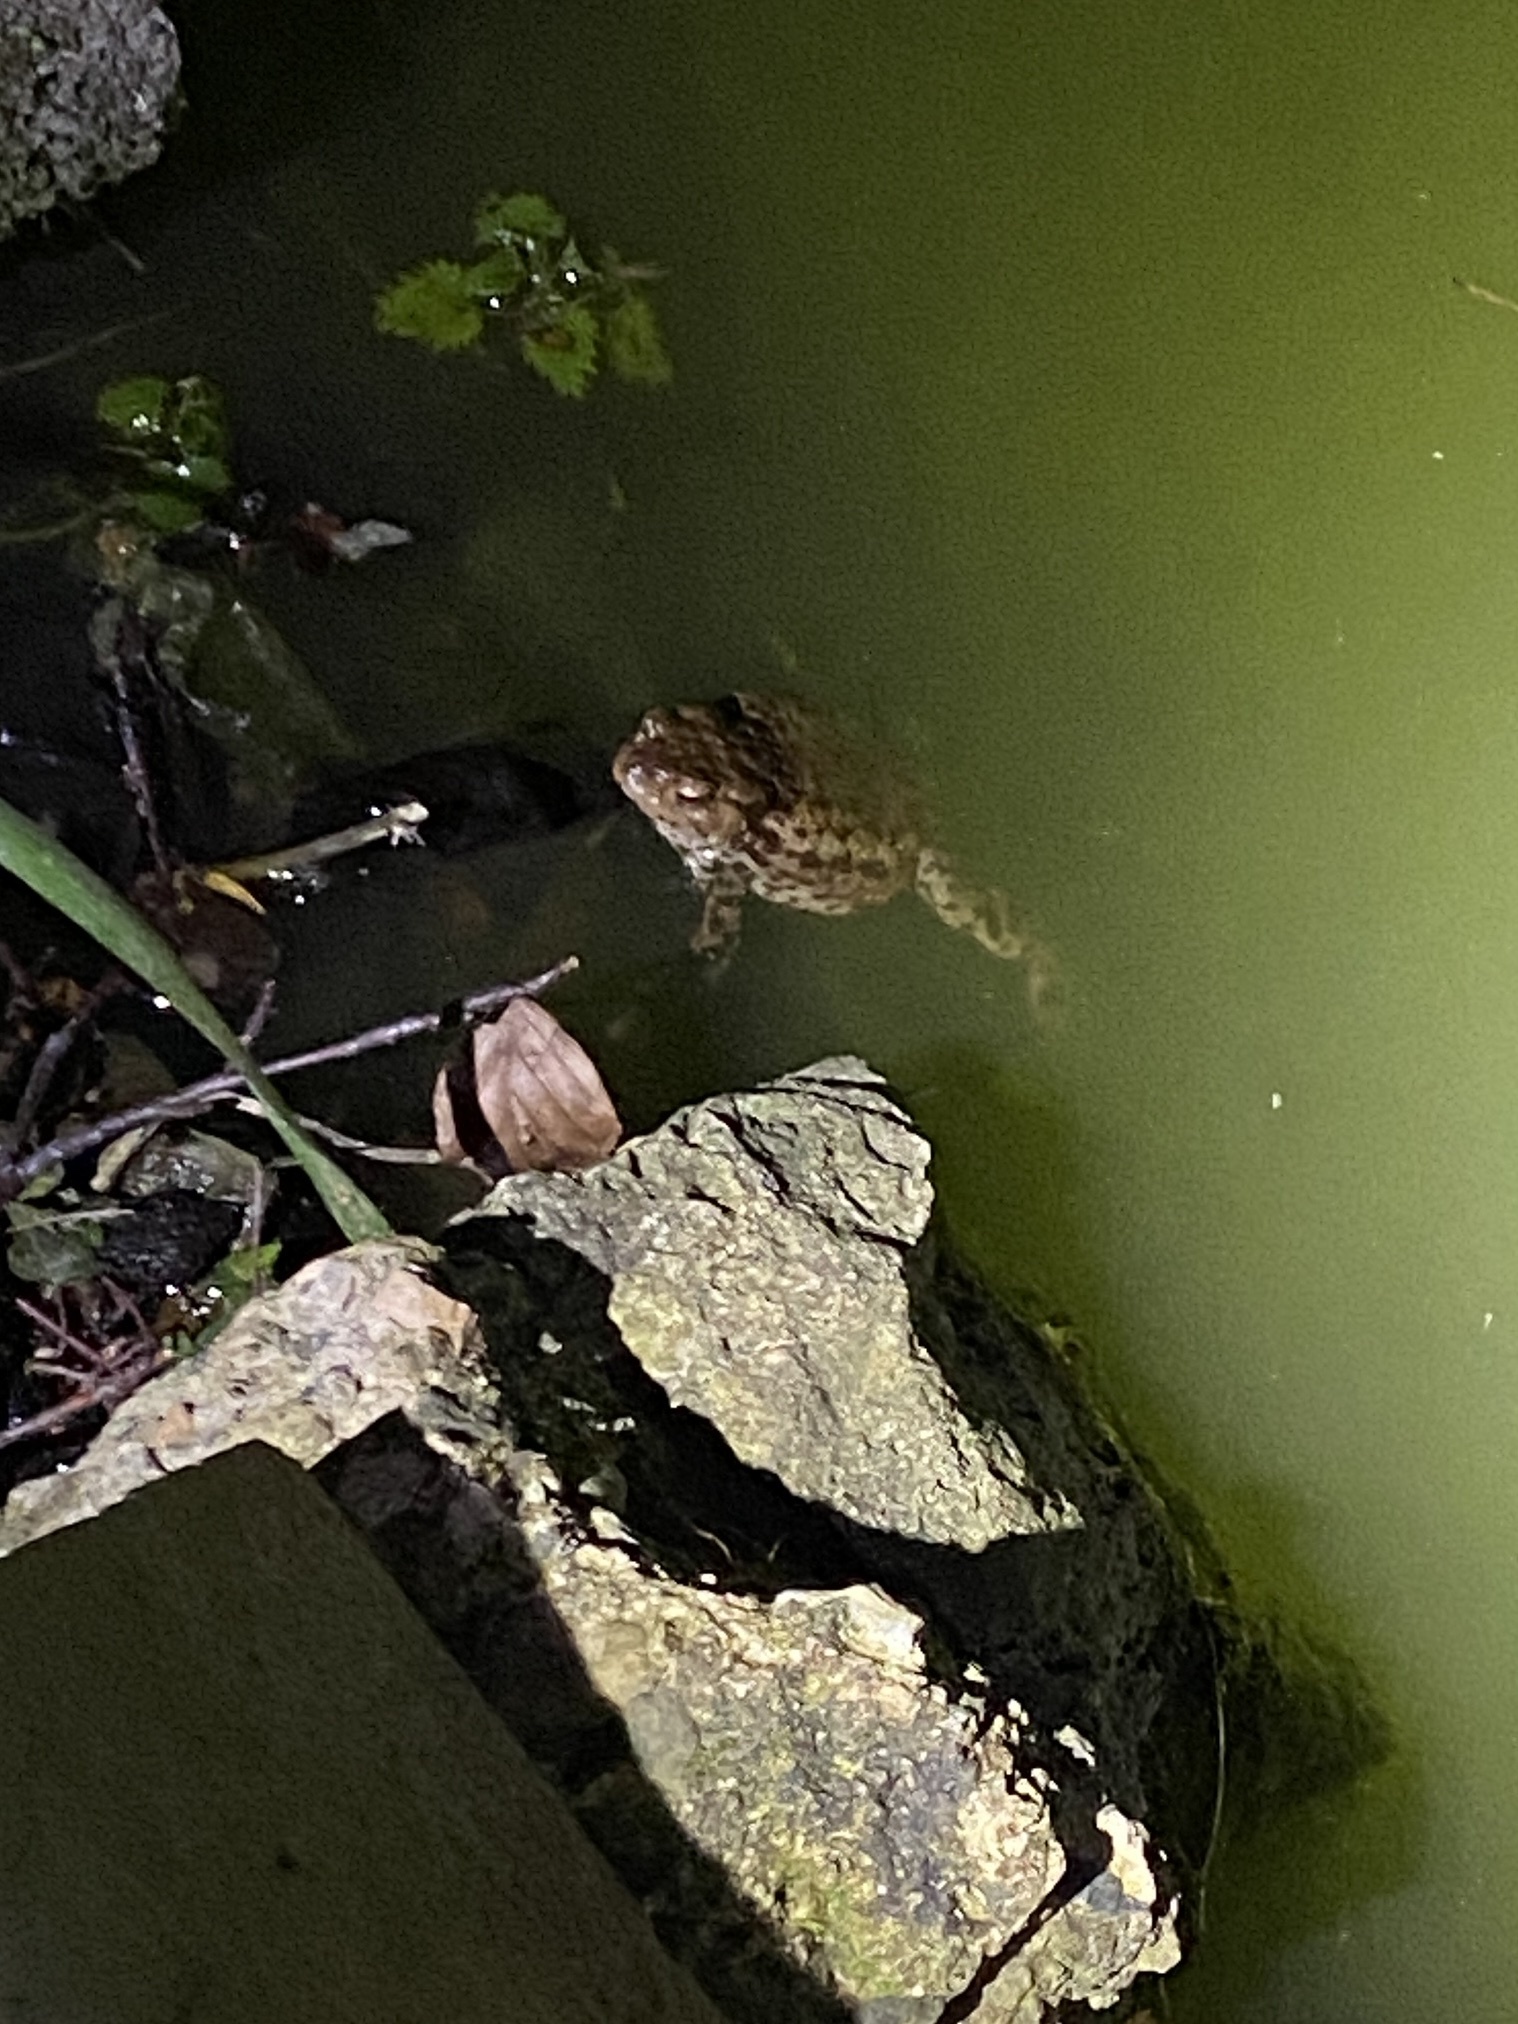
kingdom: Animalia
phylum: Chordata
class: Amphibia
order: Anura
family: Bufonidae
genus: Bufo
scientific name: Bufo bufo
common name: Common toad
